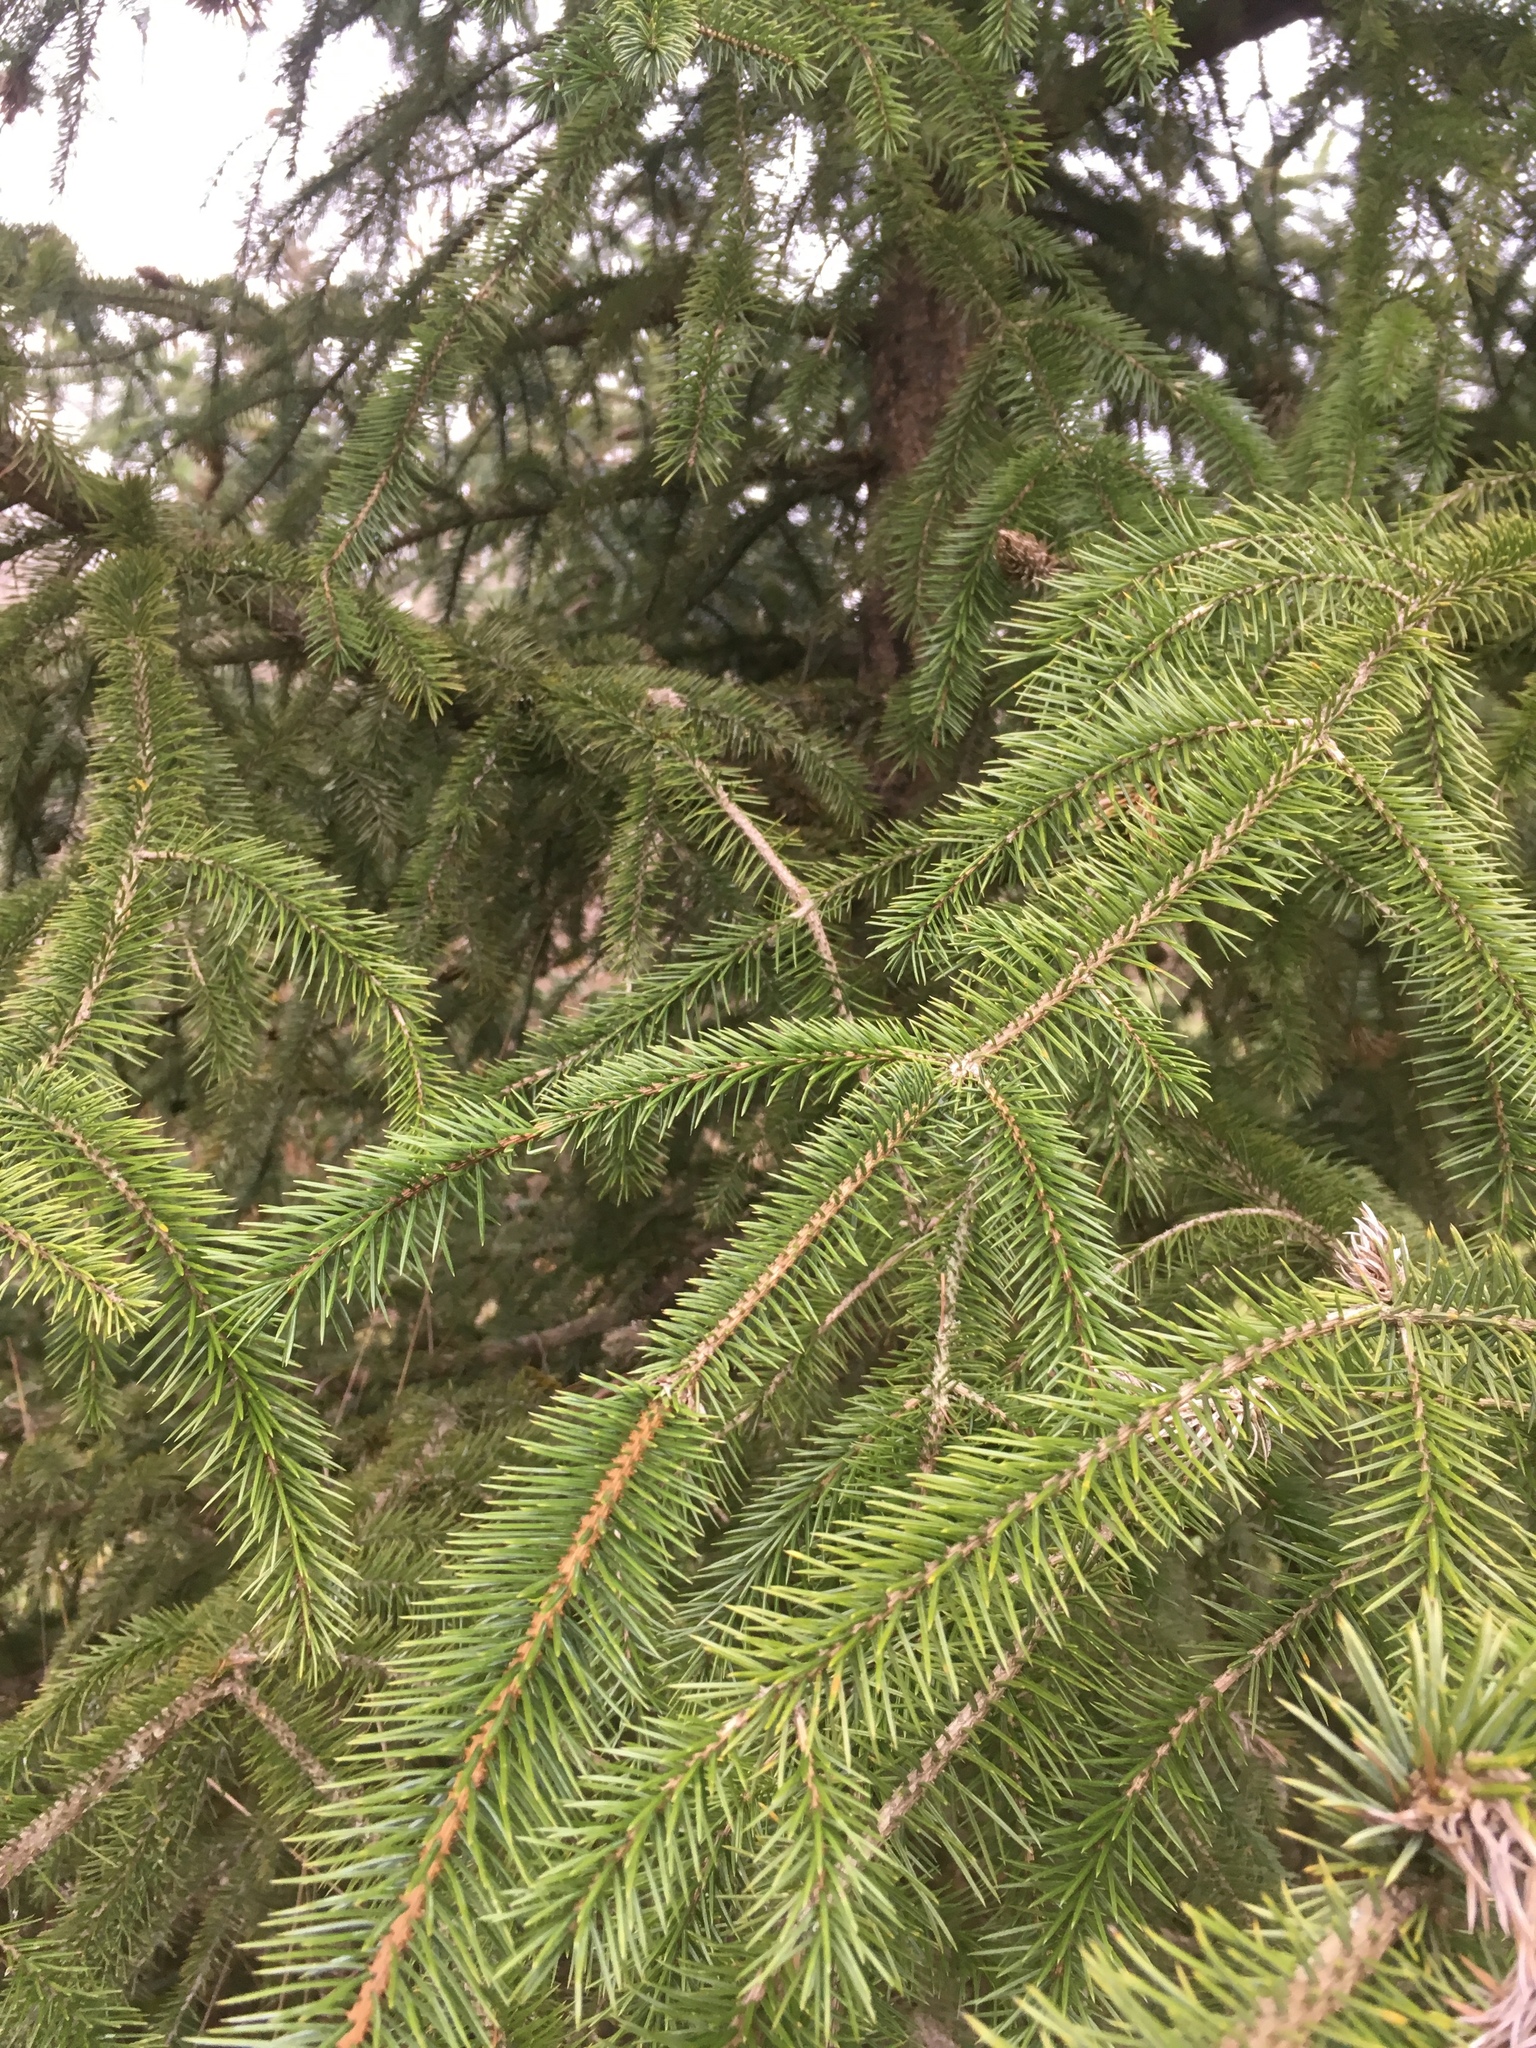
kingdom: Plantae
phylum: Tracheophyta
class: Pinopsida
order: Pinales
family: Pinaceae
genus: Picea
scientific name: Picea sitchensis
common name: Sitka spruce
